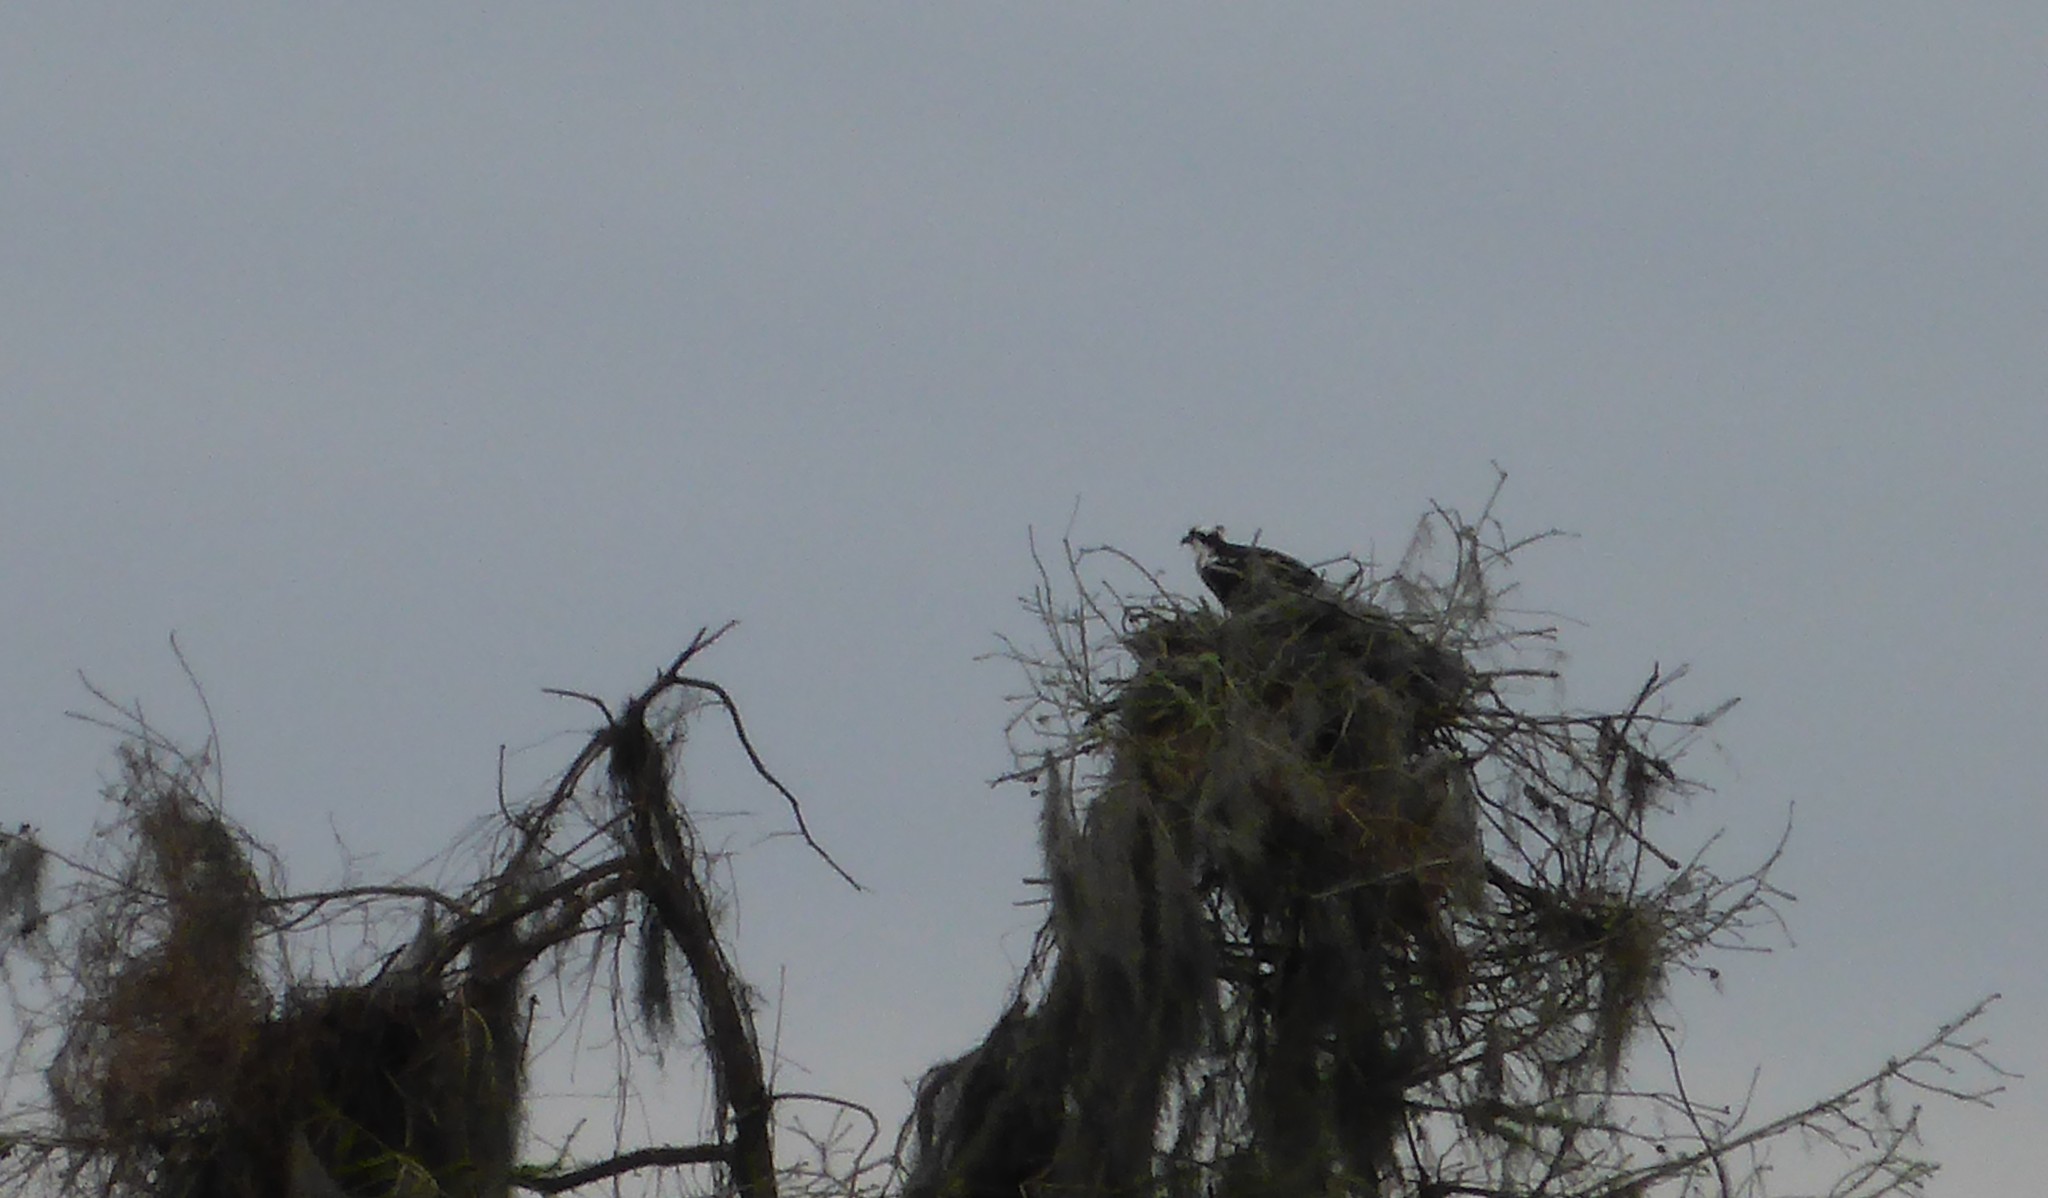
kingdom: Animalia
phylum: Chordata
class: Aves
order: Accipitriformes
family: Pandionidae
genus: Pandion
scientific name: Pandion haliaetus
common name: Osprey
